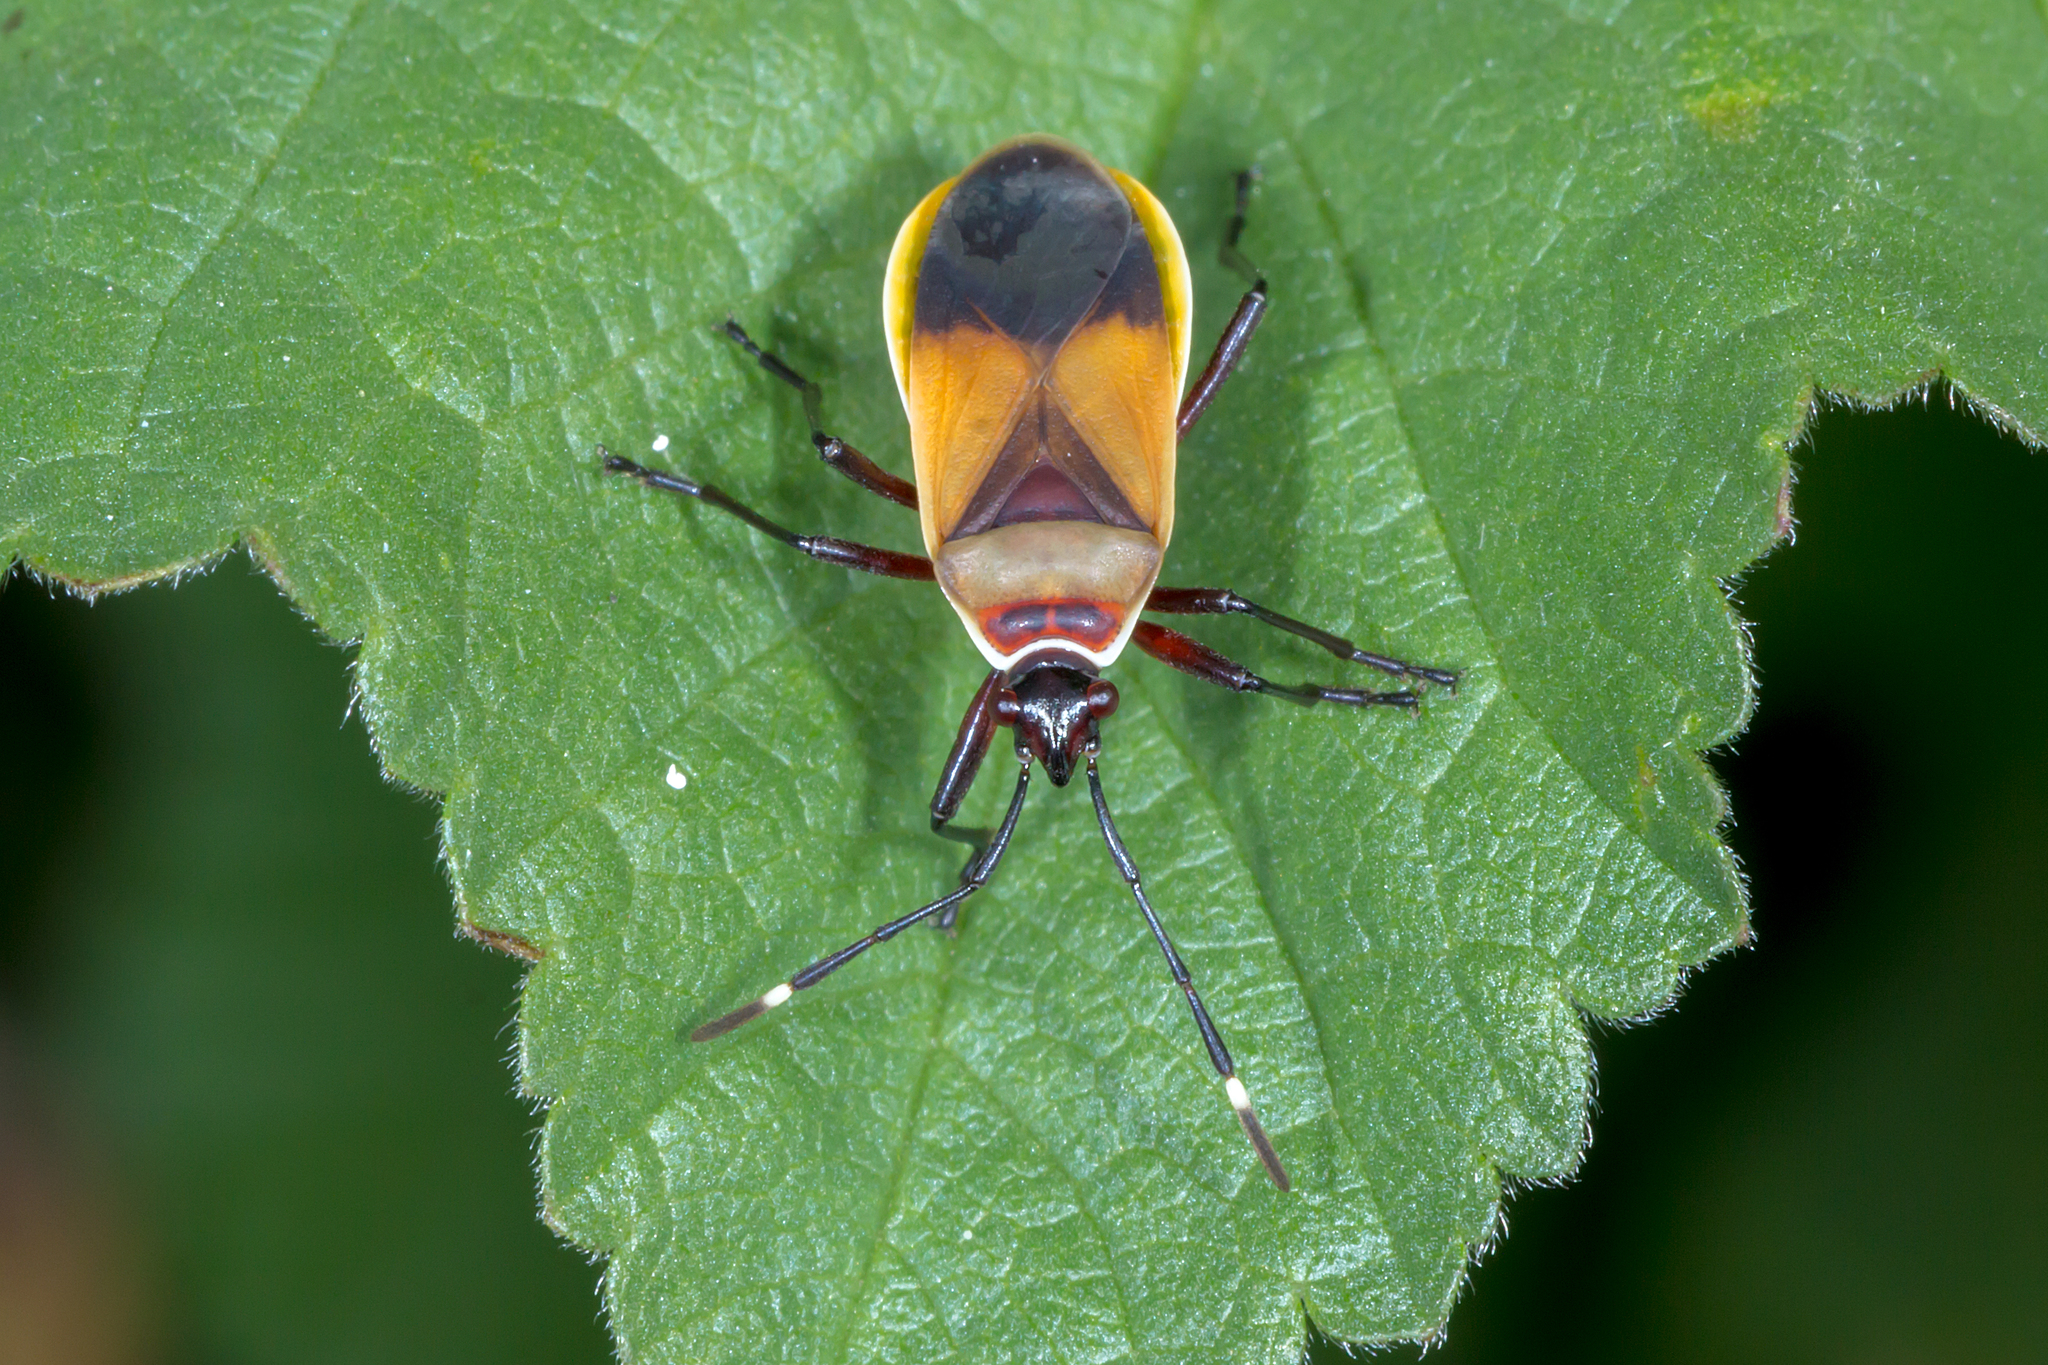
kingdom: Animalia
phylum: Arthropoda
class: Insecta
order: Hemiptera
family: Pyrrhocoridae
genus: Dindymus
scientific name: Dindymus
